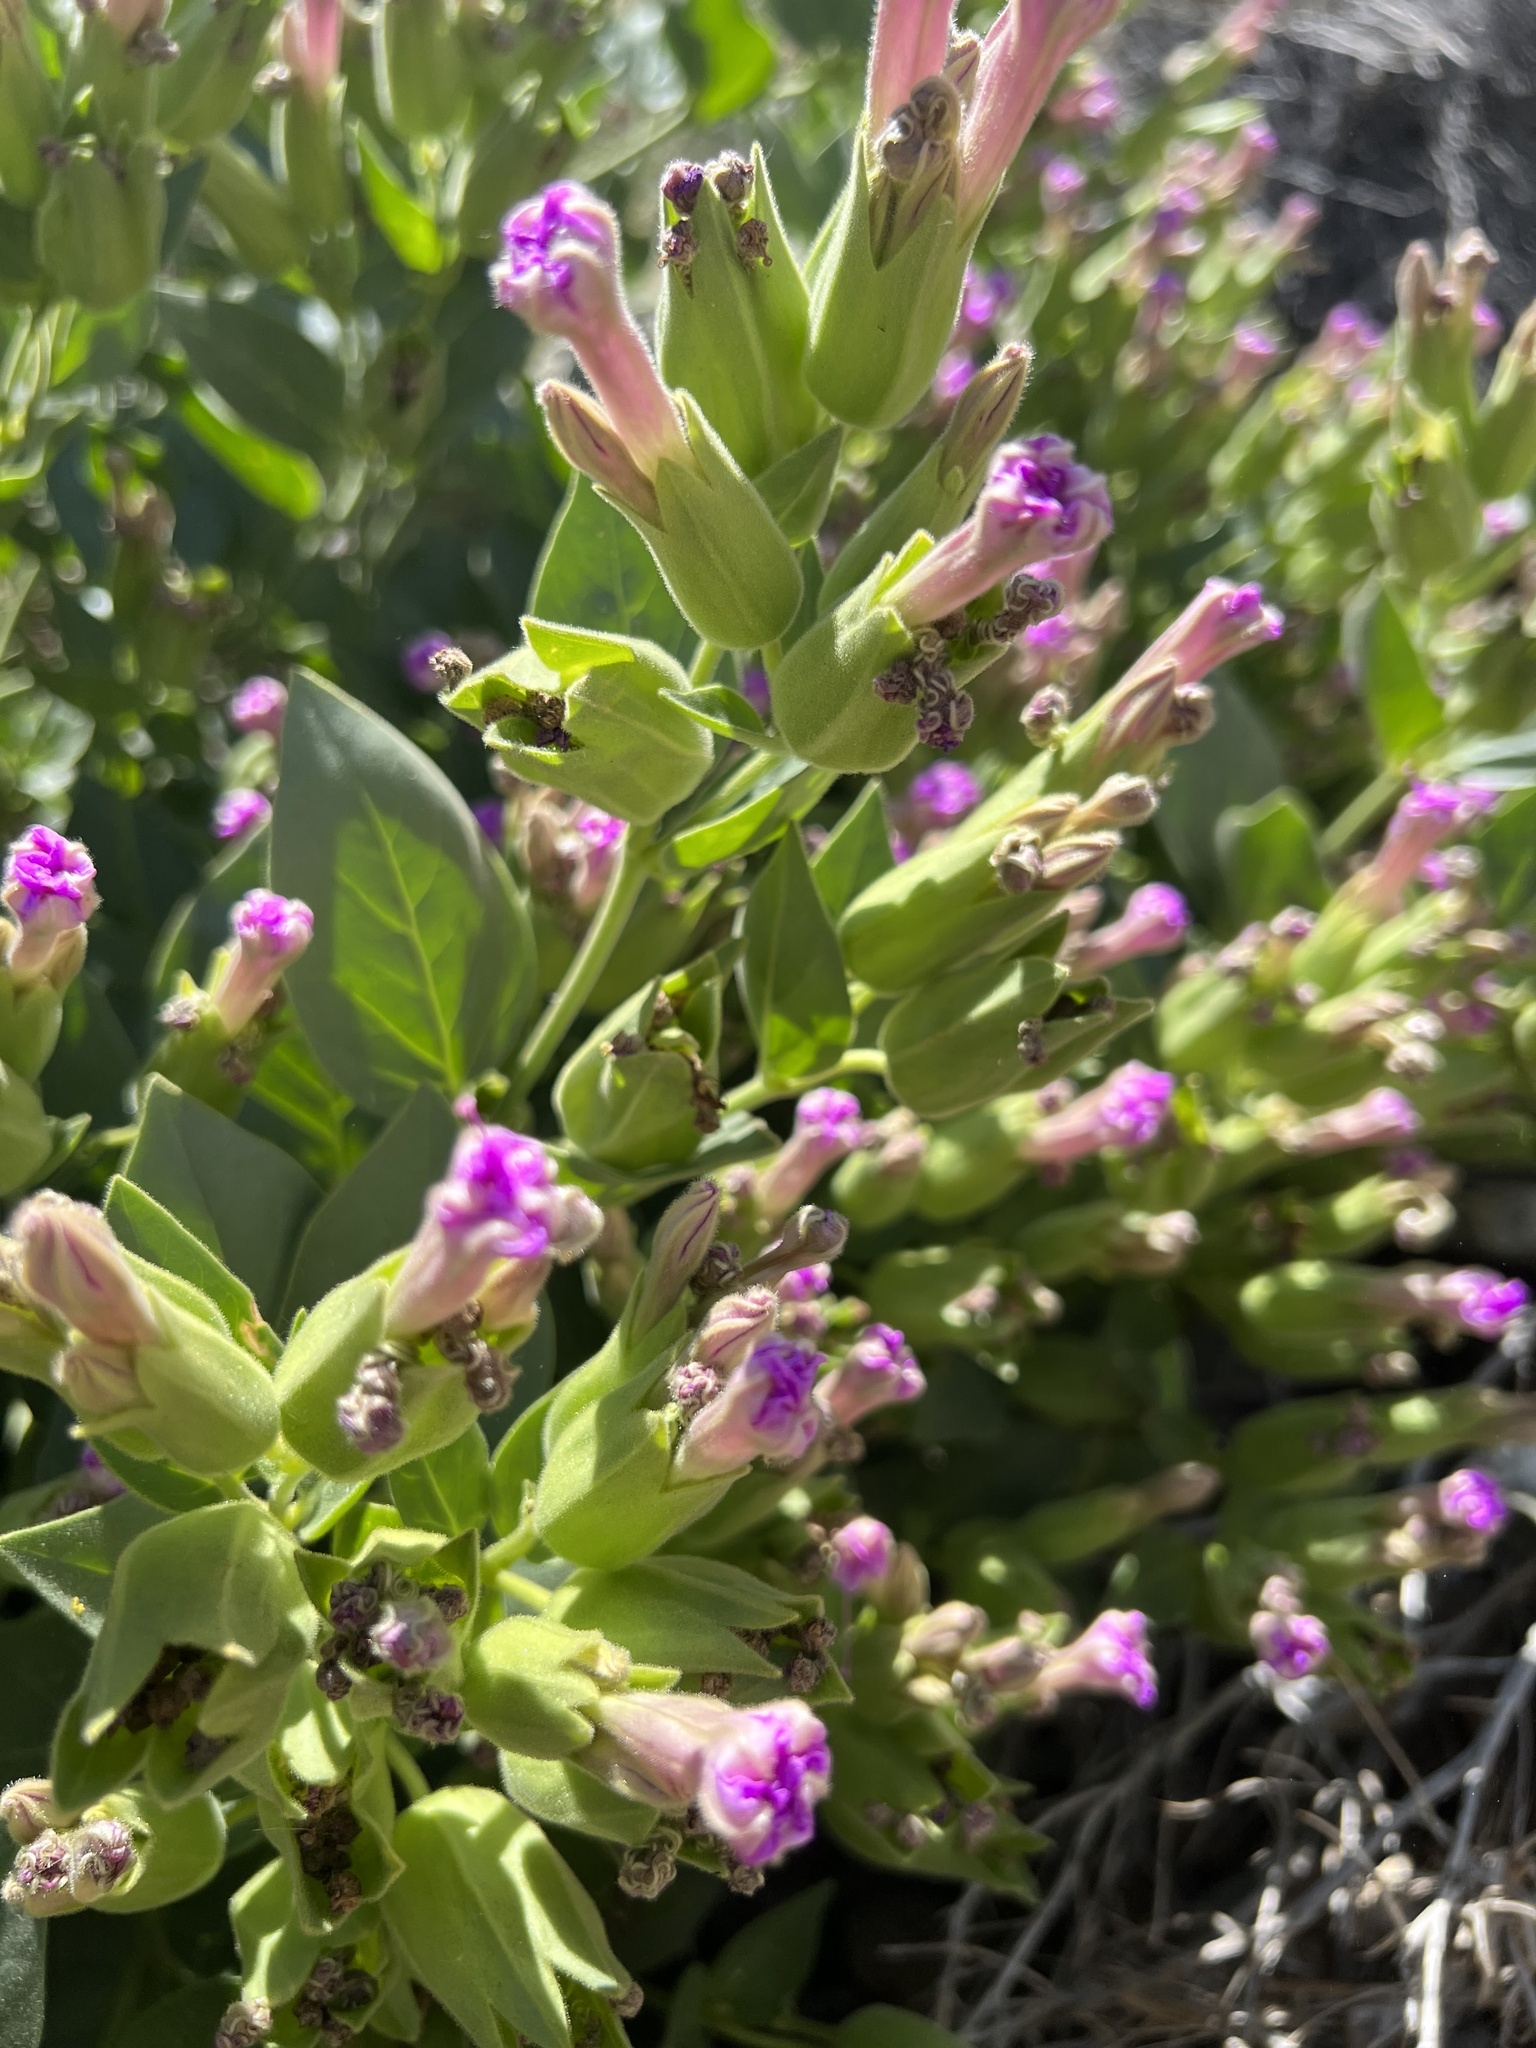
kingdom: Plantae
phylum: Tracheophyta
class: Magnoliopsida
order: Caryophyllales
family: Nyctaginaceae
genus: Mirabilis
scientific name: Mirabilis multiflora
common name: Froebel's four-o'clock
